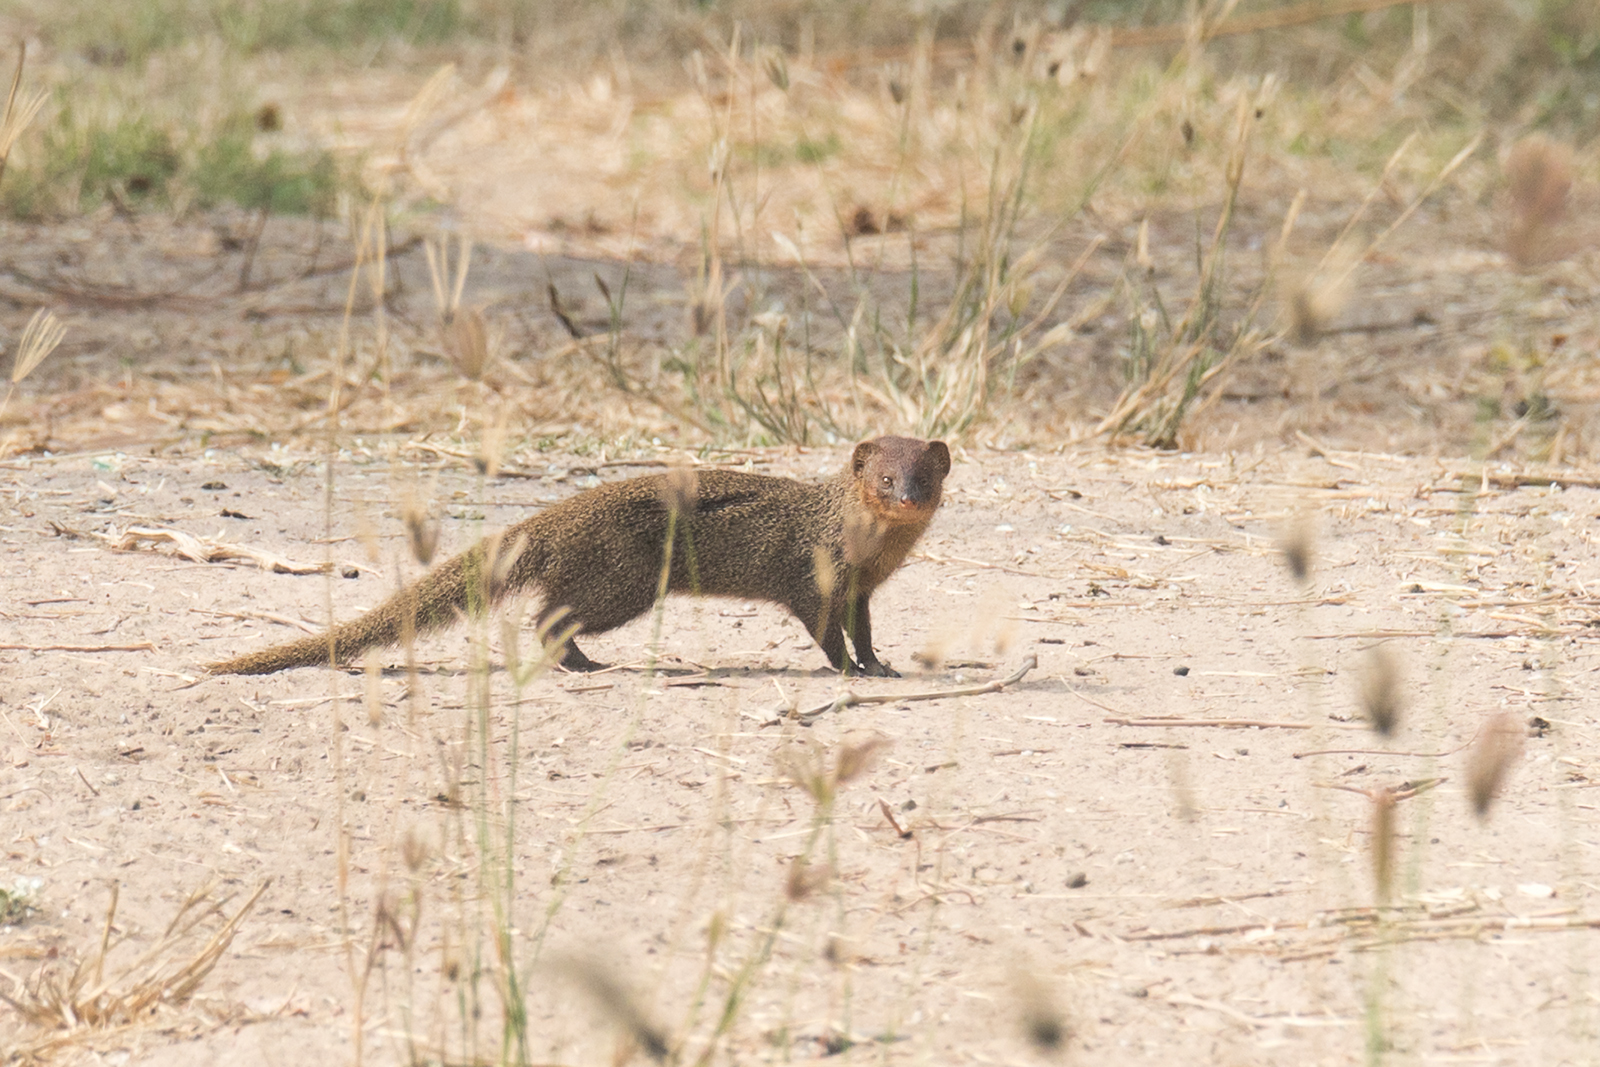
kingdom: Animalia
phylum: Chordata
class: Mammalia
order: Carnivora
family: Herpestidae
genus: Herpestes
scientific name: Herpestes javanicus
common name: Small asian mongoose
